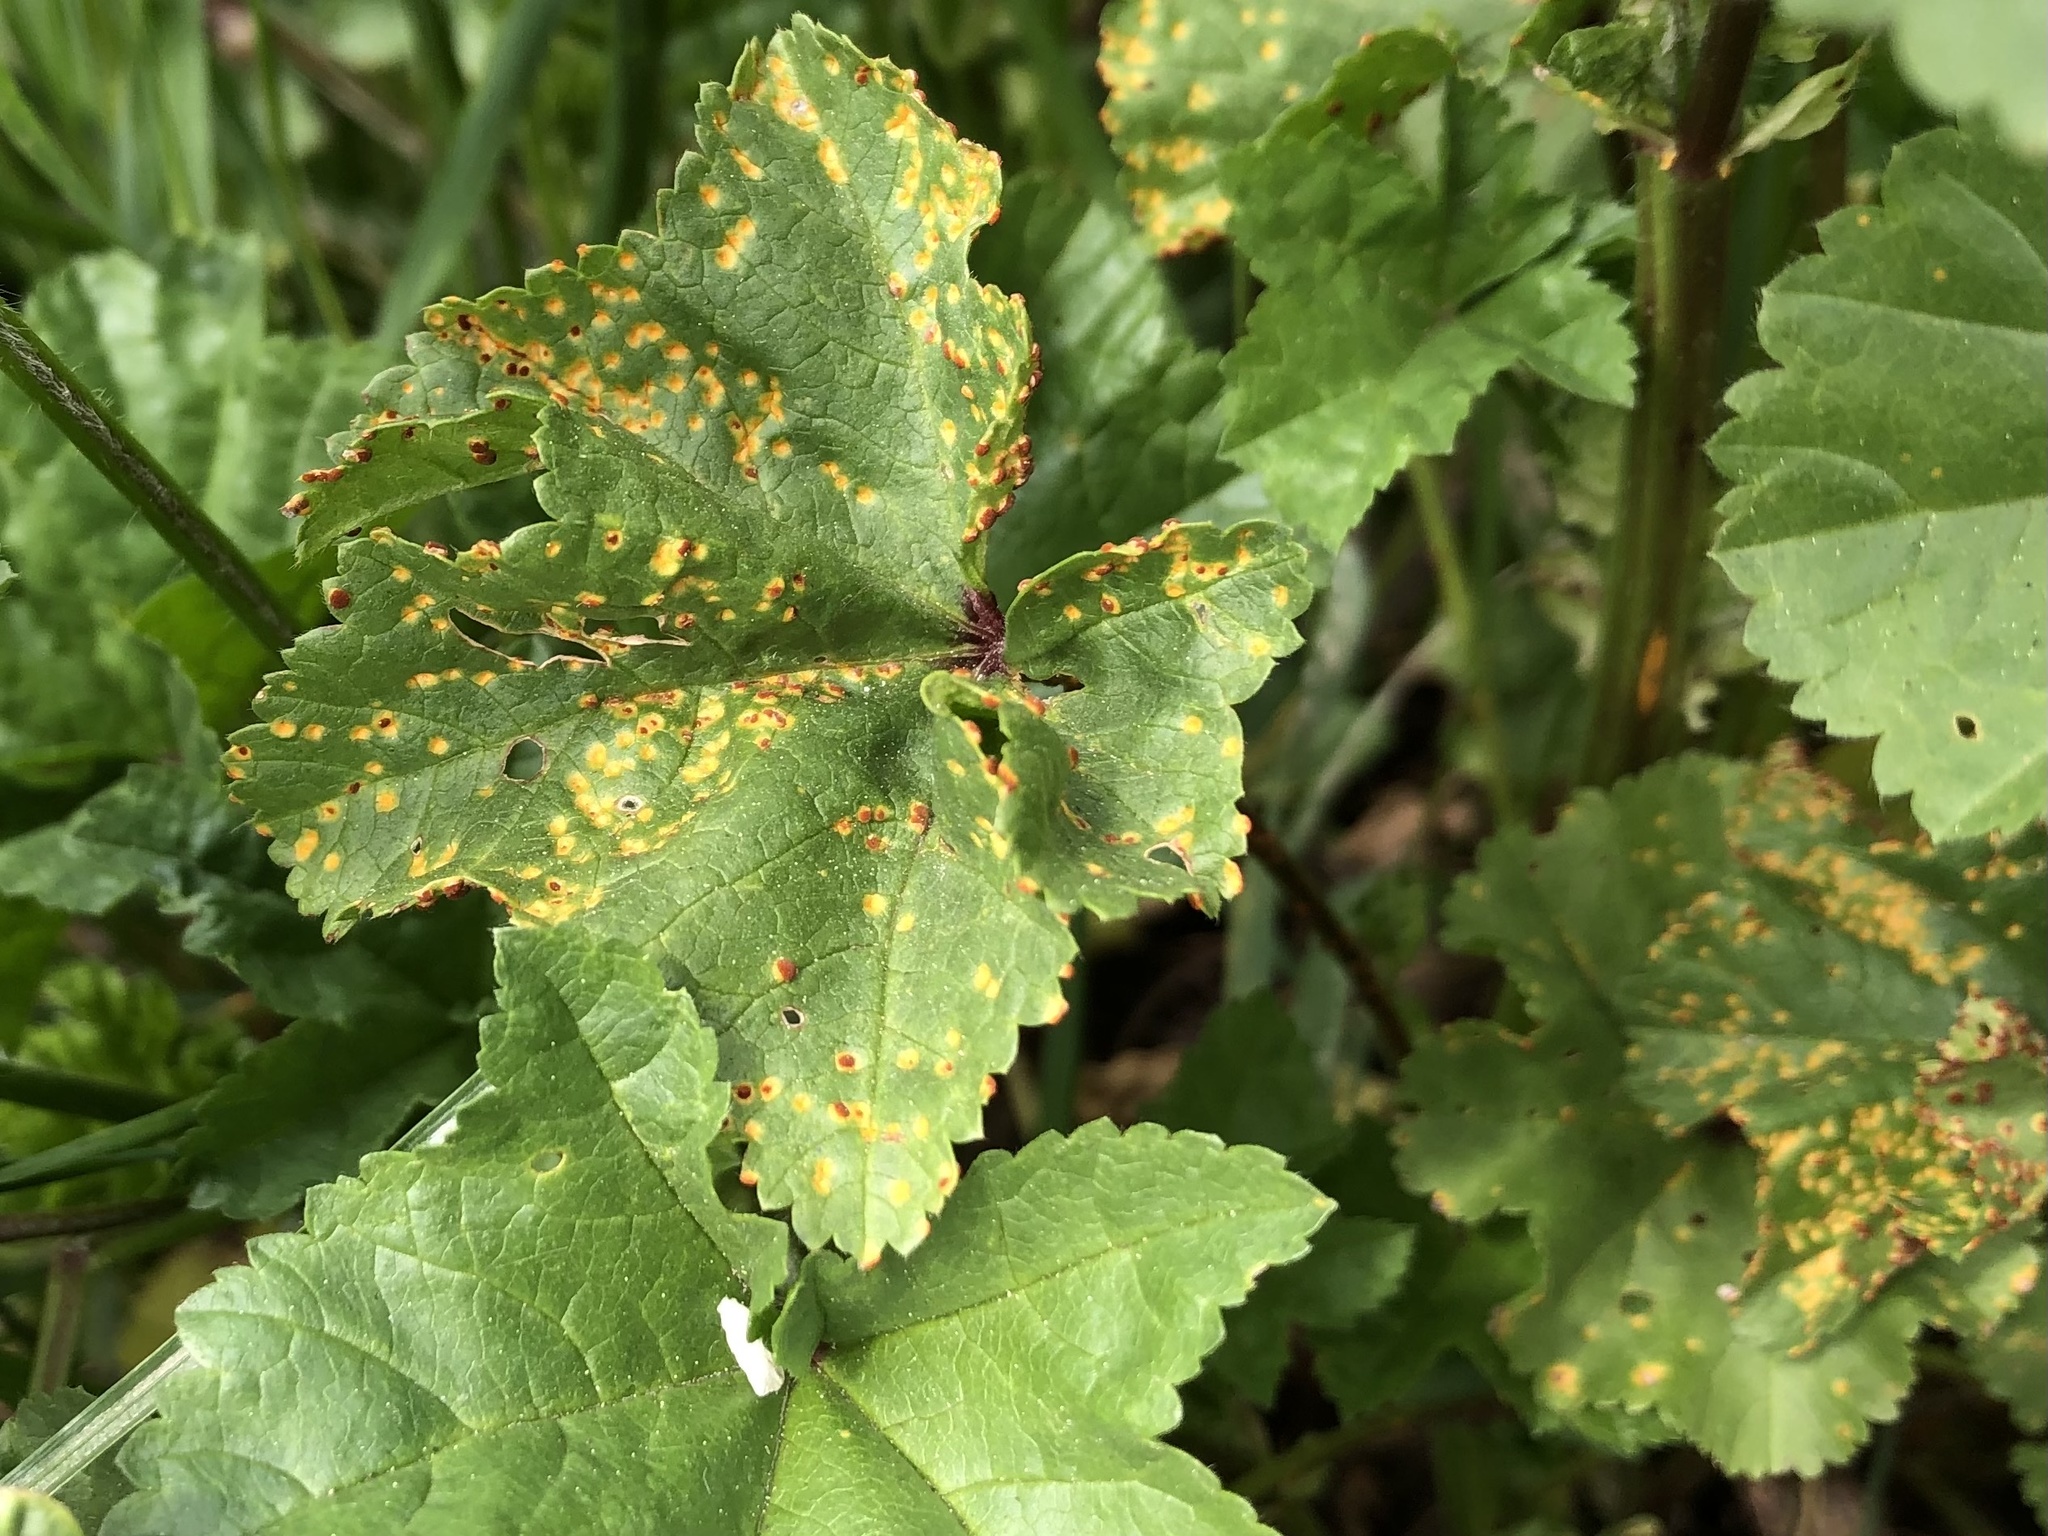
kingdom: Fungi
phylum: Basidiomycota
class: Pucciniomycetes
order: Pucciniales
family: Pucciniaceae
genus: Puccinia
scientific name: Puccinia malvacearum
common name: Hollyhock rust
